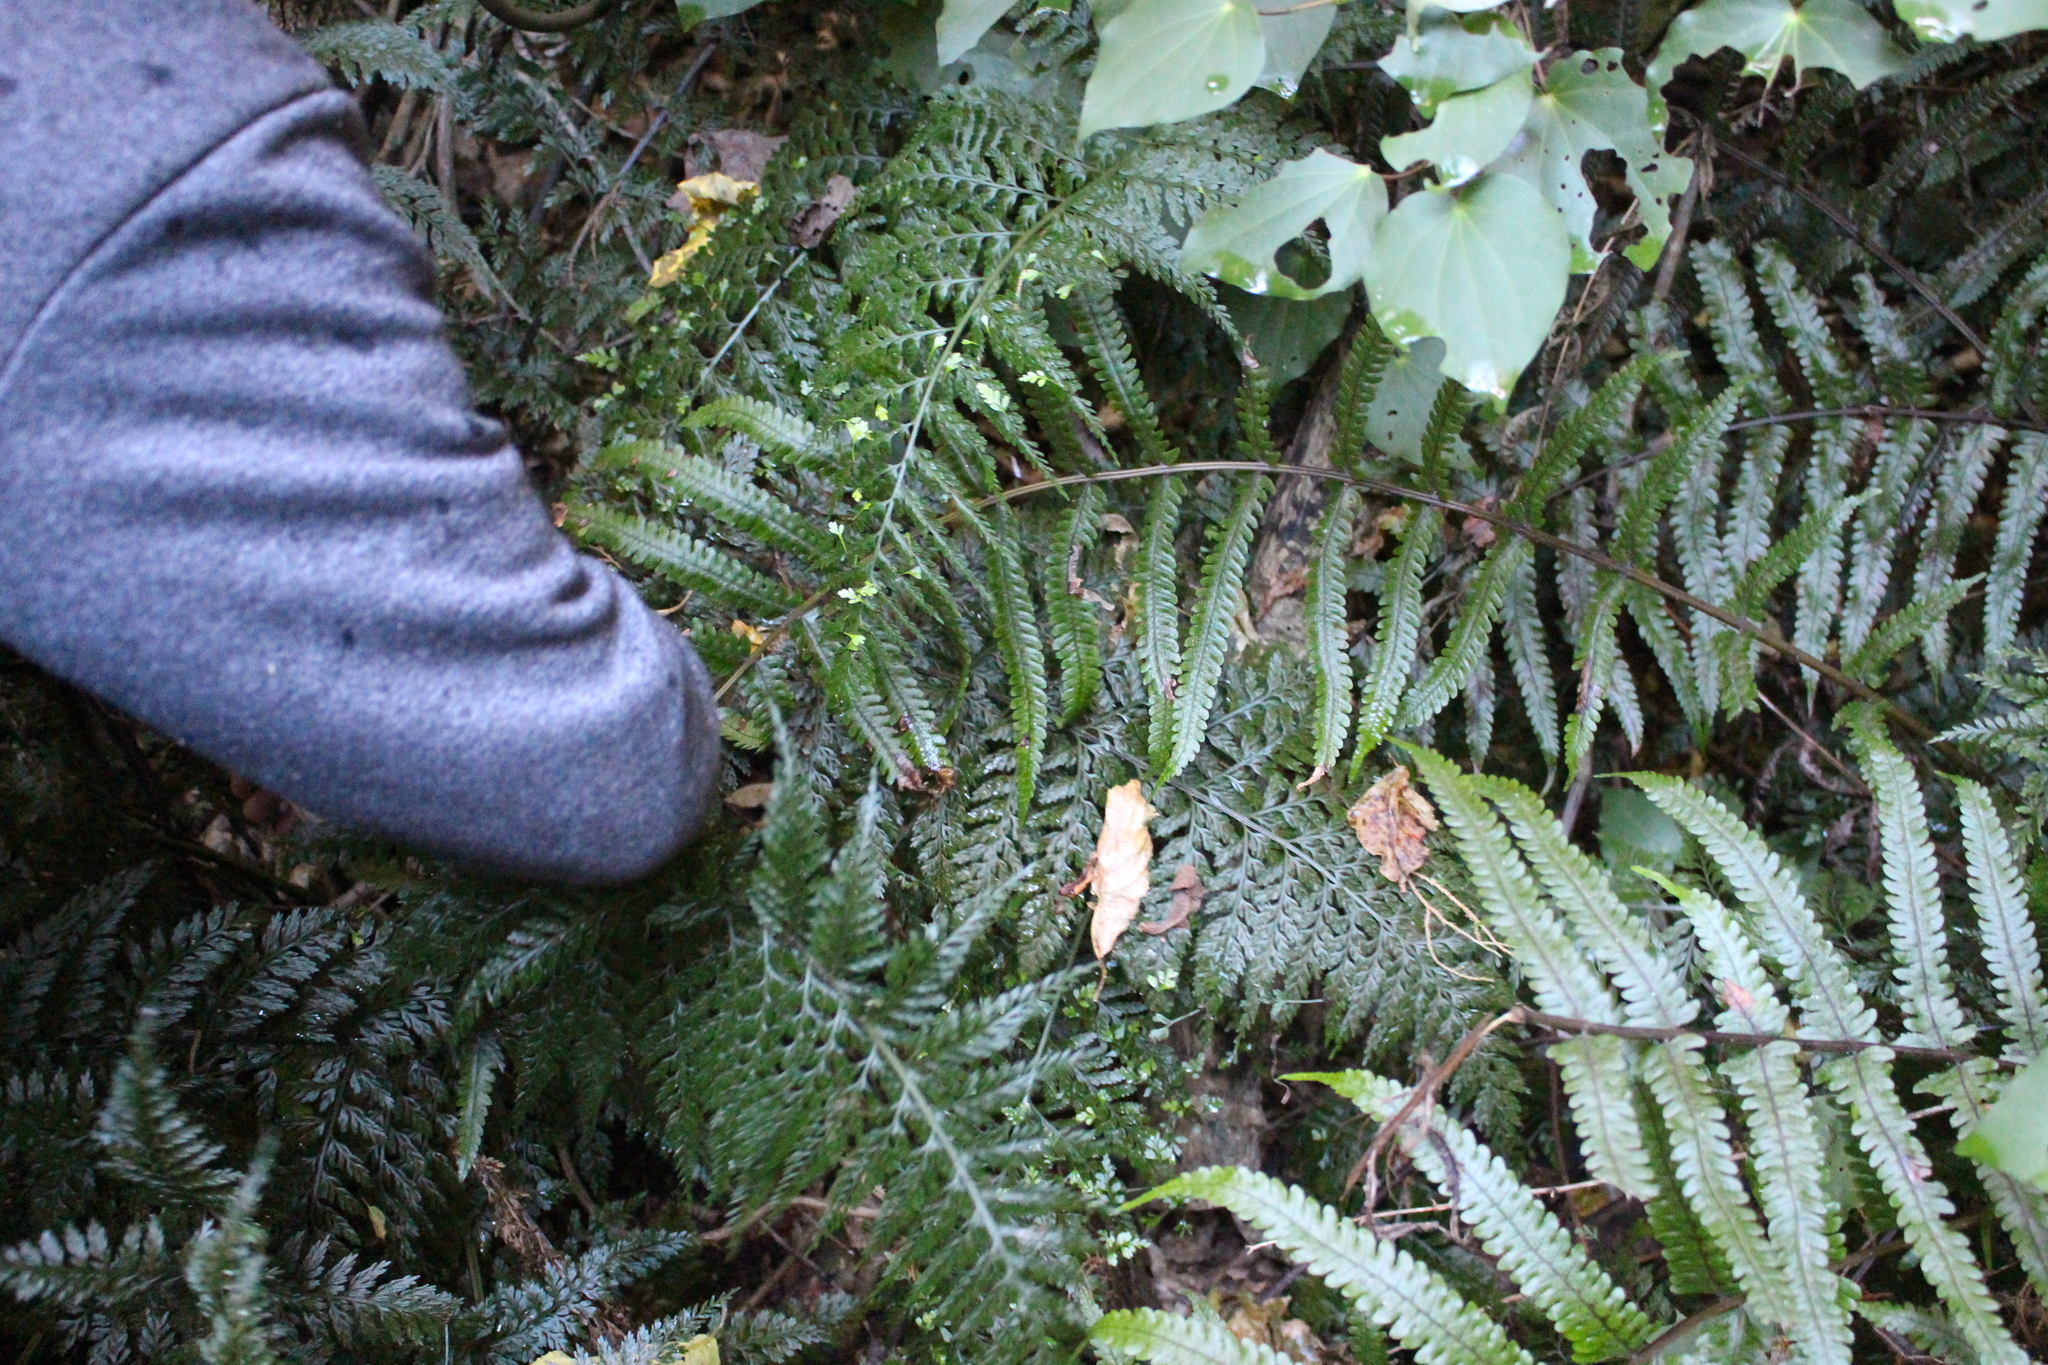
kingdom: Plantae
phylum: Tracheophyta
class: Polypodiopsida
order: Polypodiales
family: Thelypteridaceae
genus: Pakau
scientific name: Pakau pennigera
